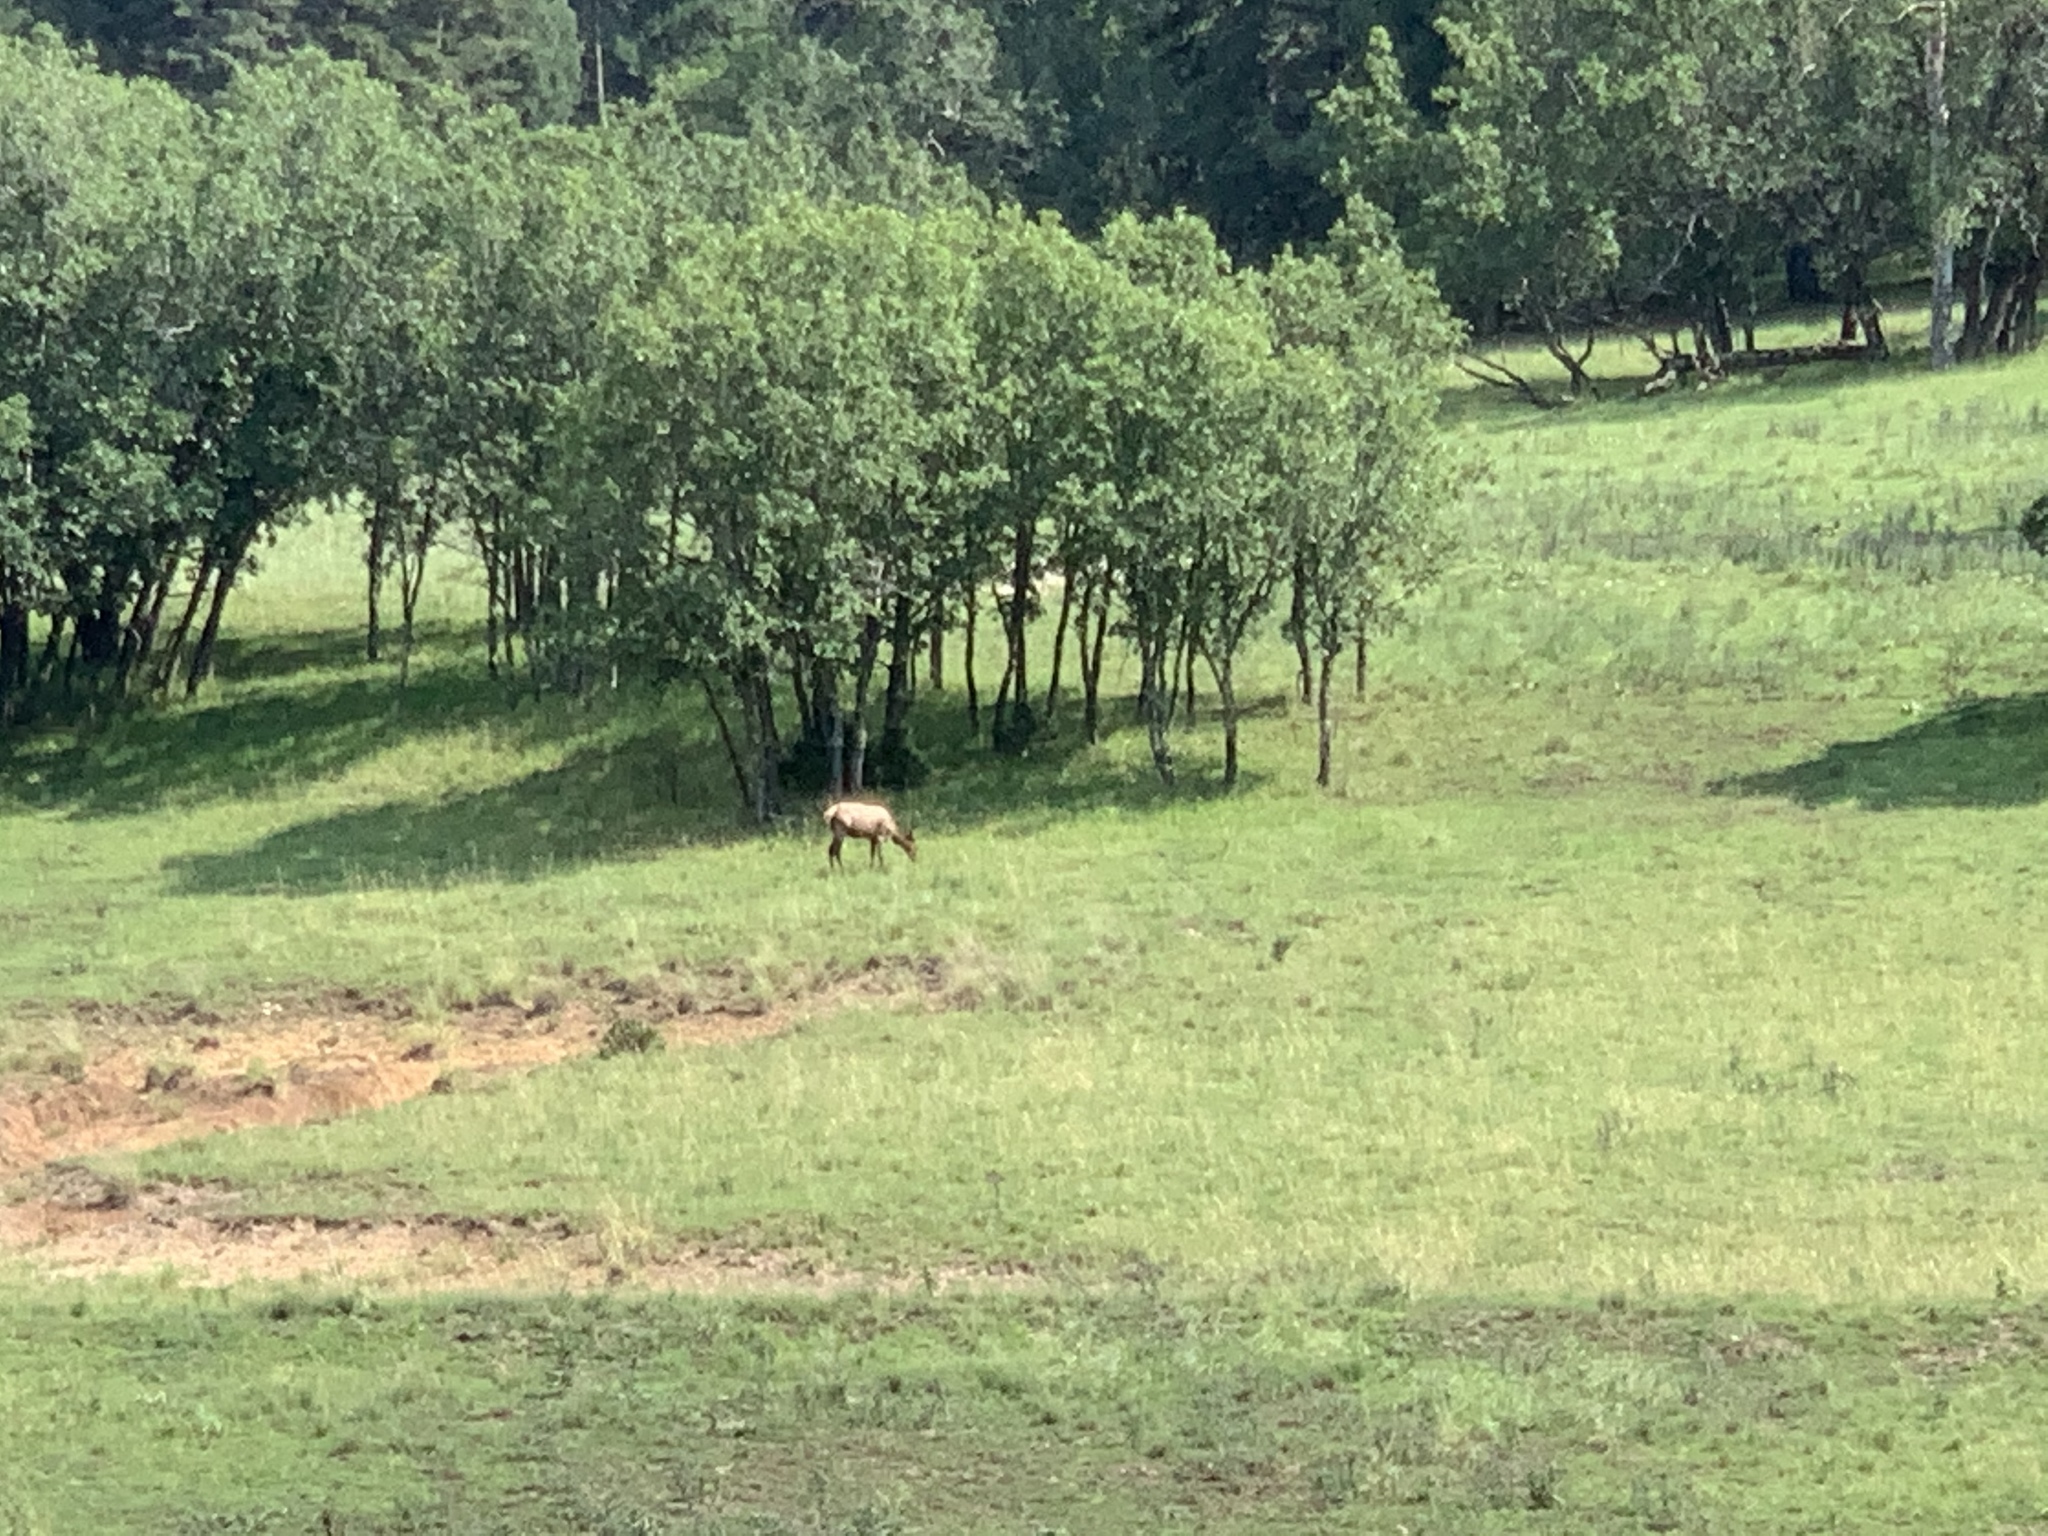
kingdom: Animalia
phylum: Chordata
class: Mammalia
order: Artiodactyla
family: Cervidae
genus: Cervus
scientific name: Cervus elaphus
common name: Red deer
